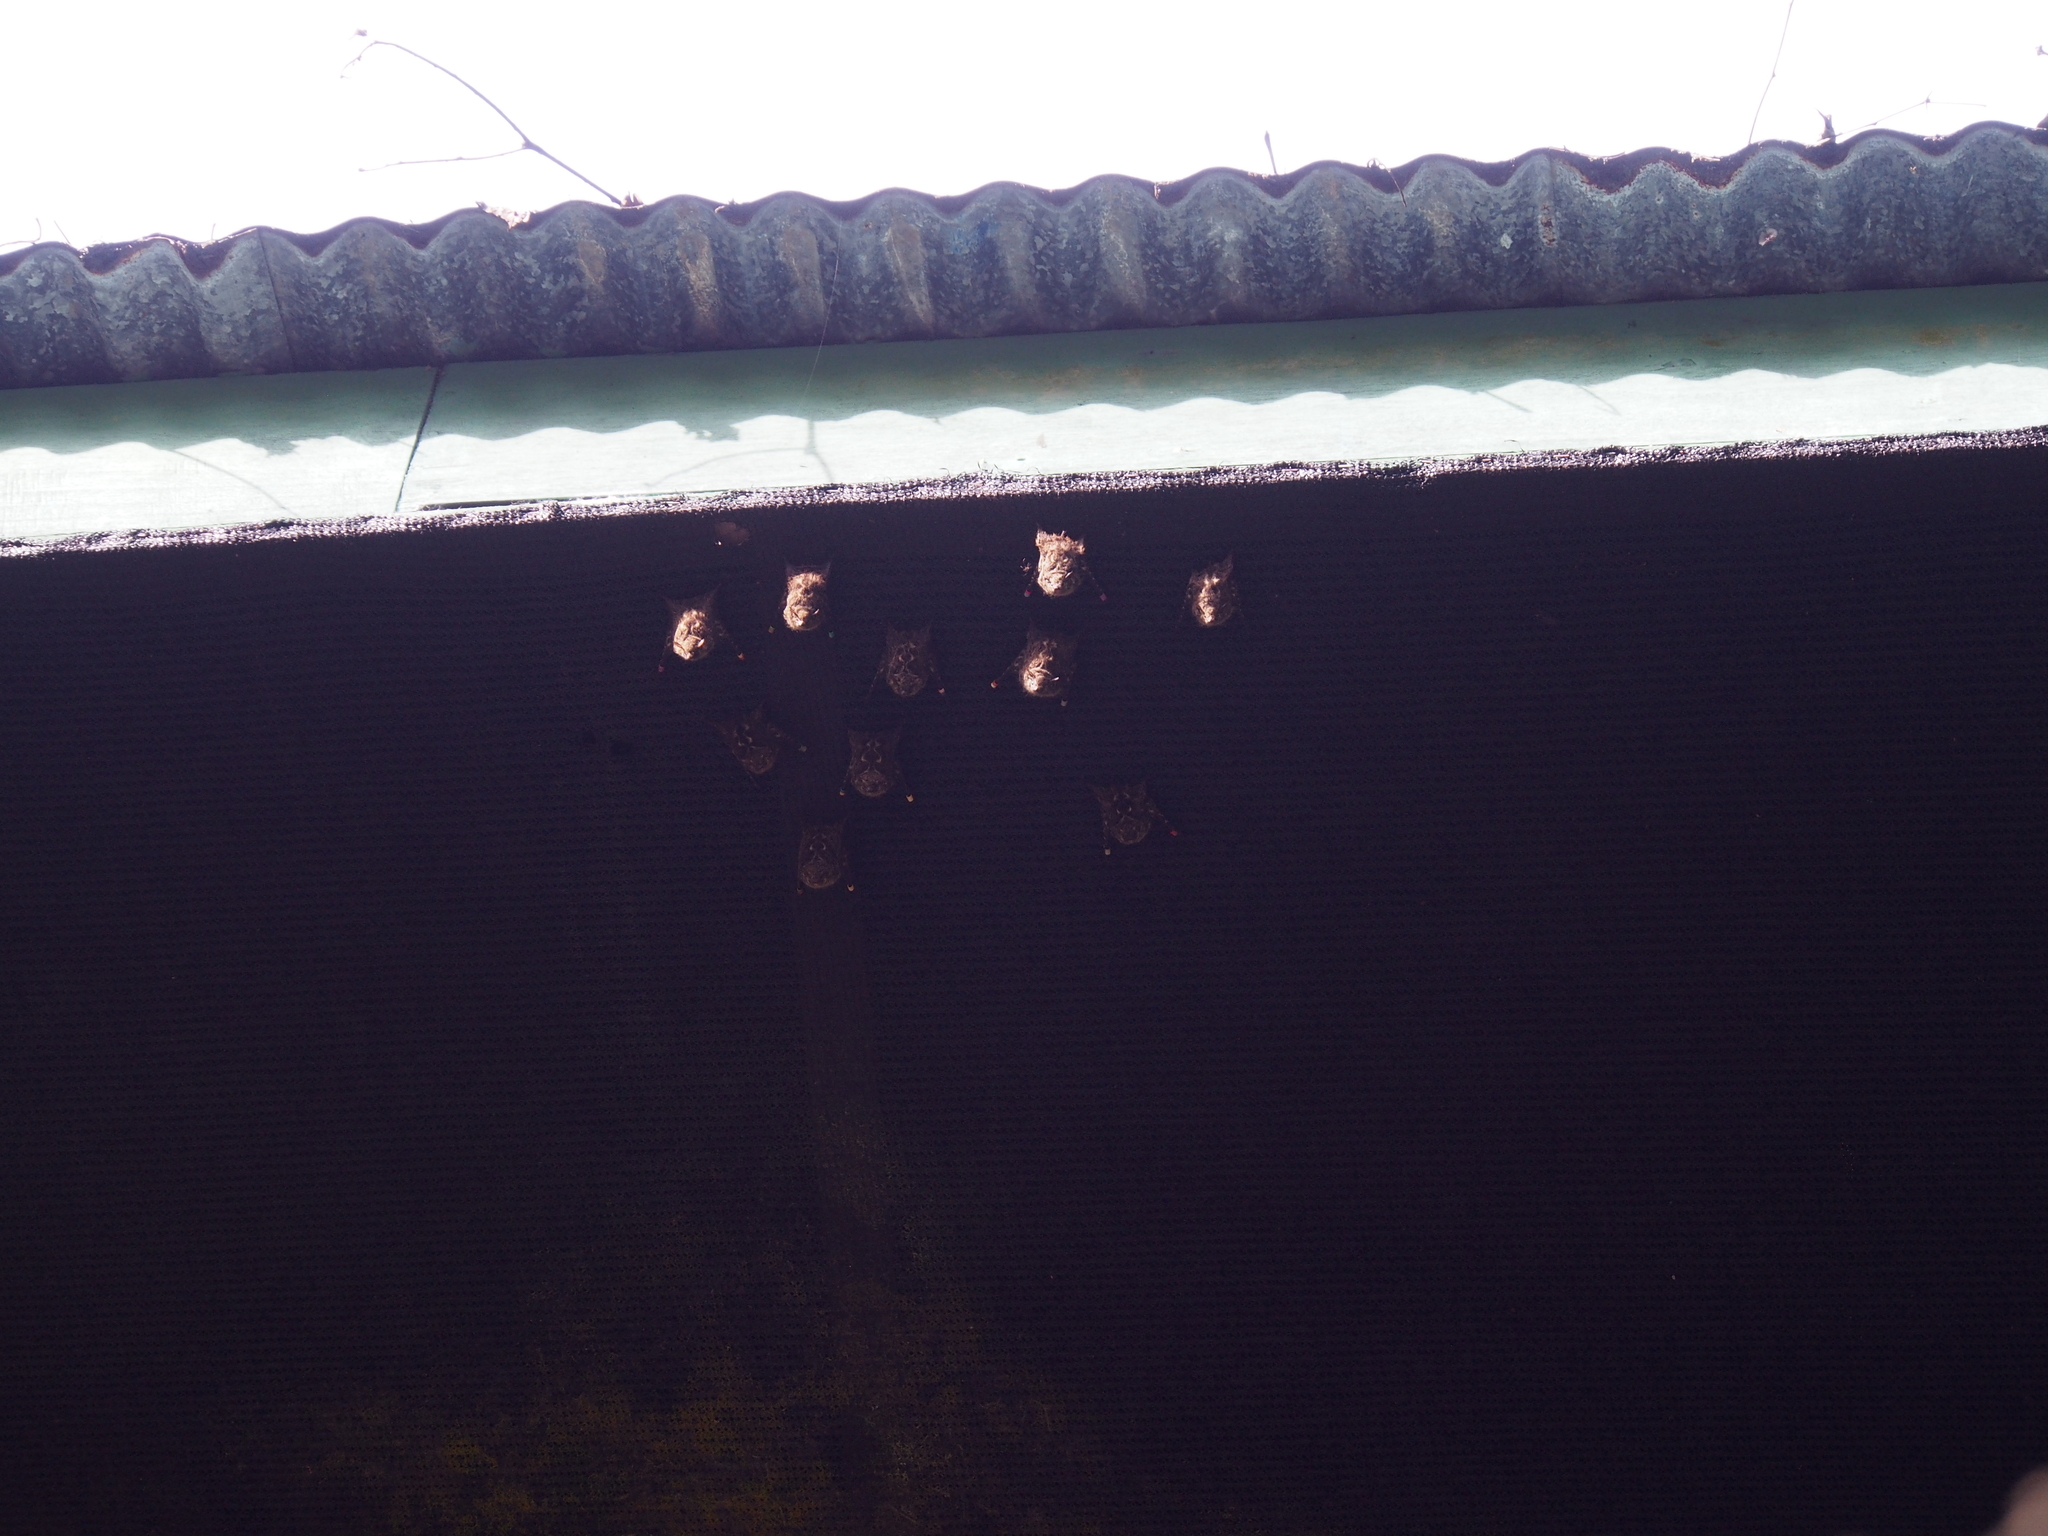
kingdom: Animalia
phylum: Chordata
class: Mammalia
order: Chiroptera
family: Emballonuridae
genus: Rhynchonycteris
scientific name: Rhynchonycteris naso
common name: Proboscis bat
